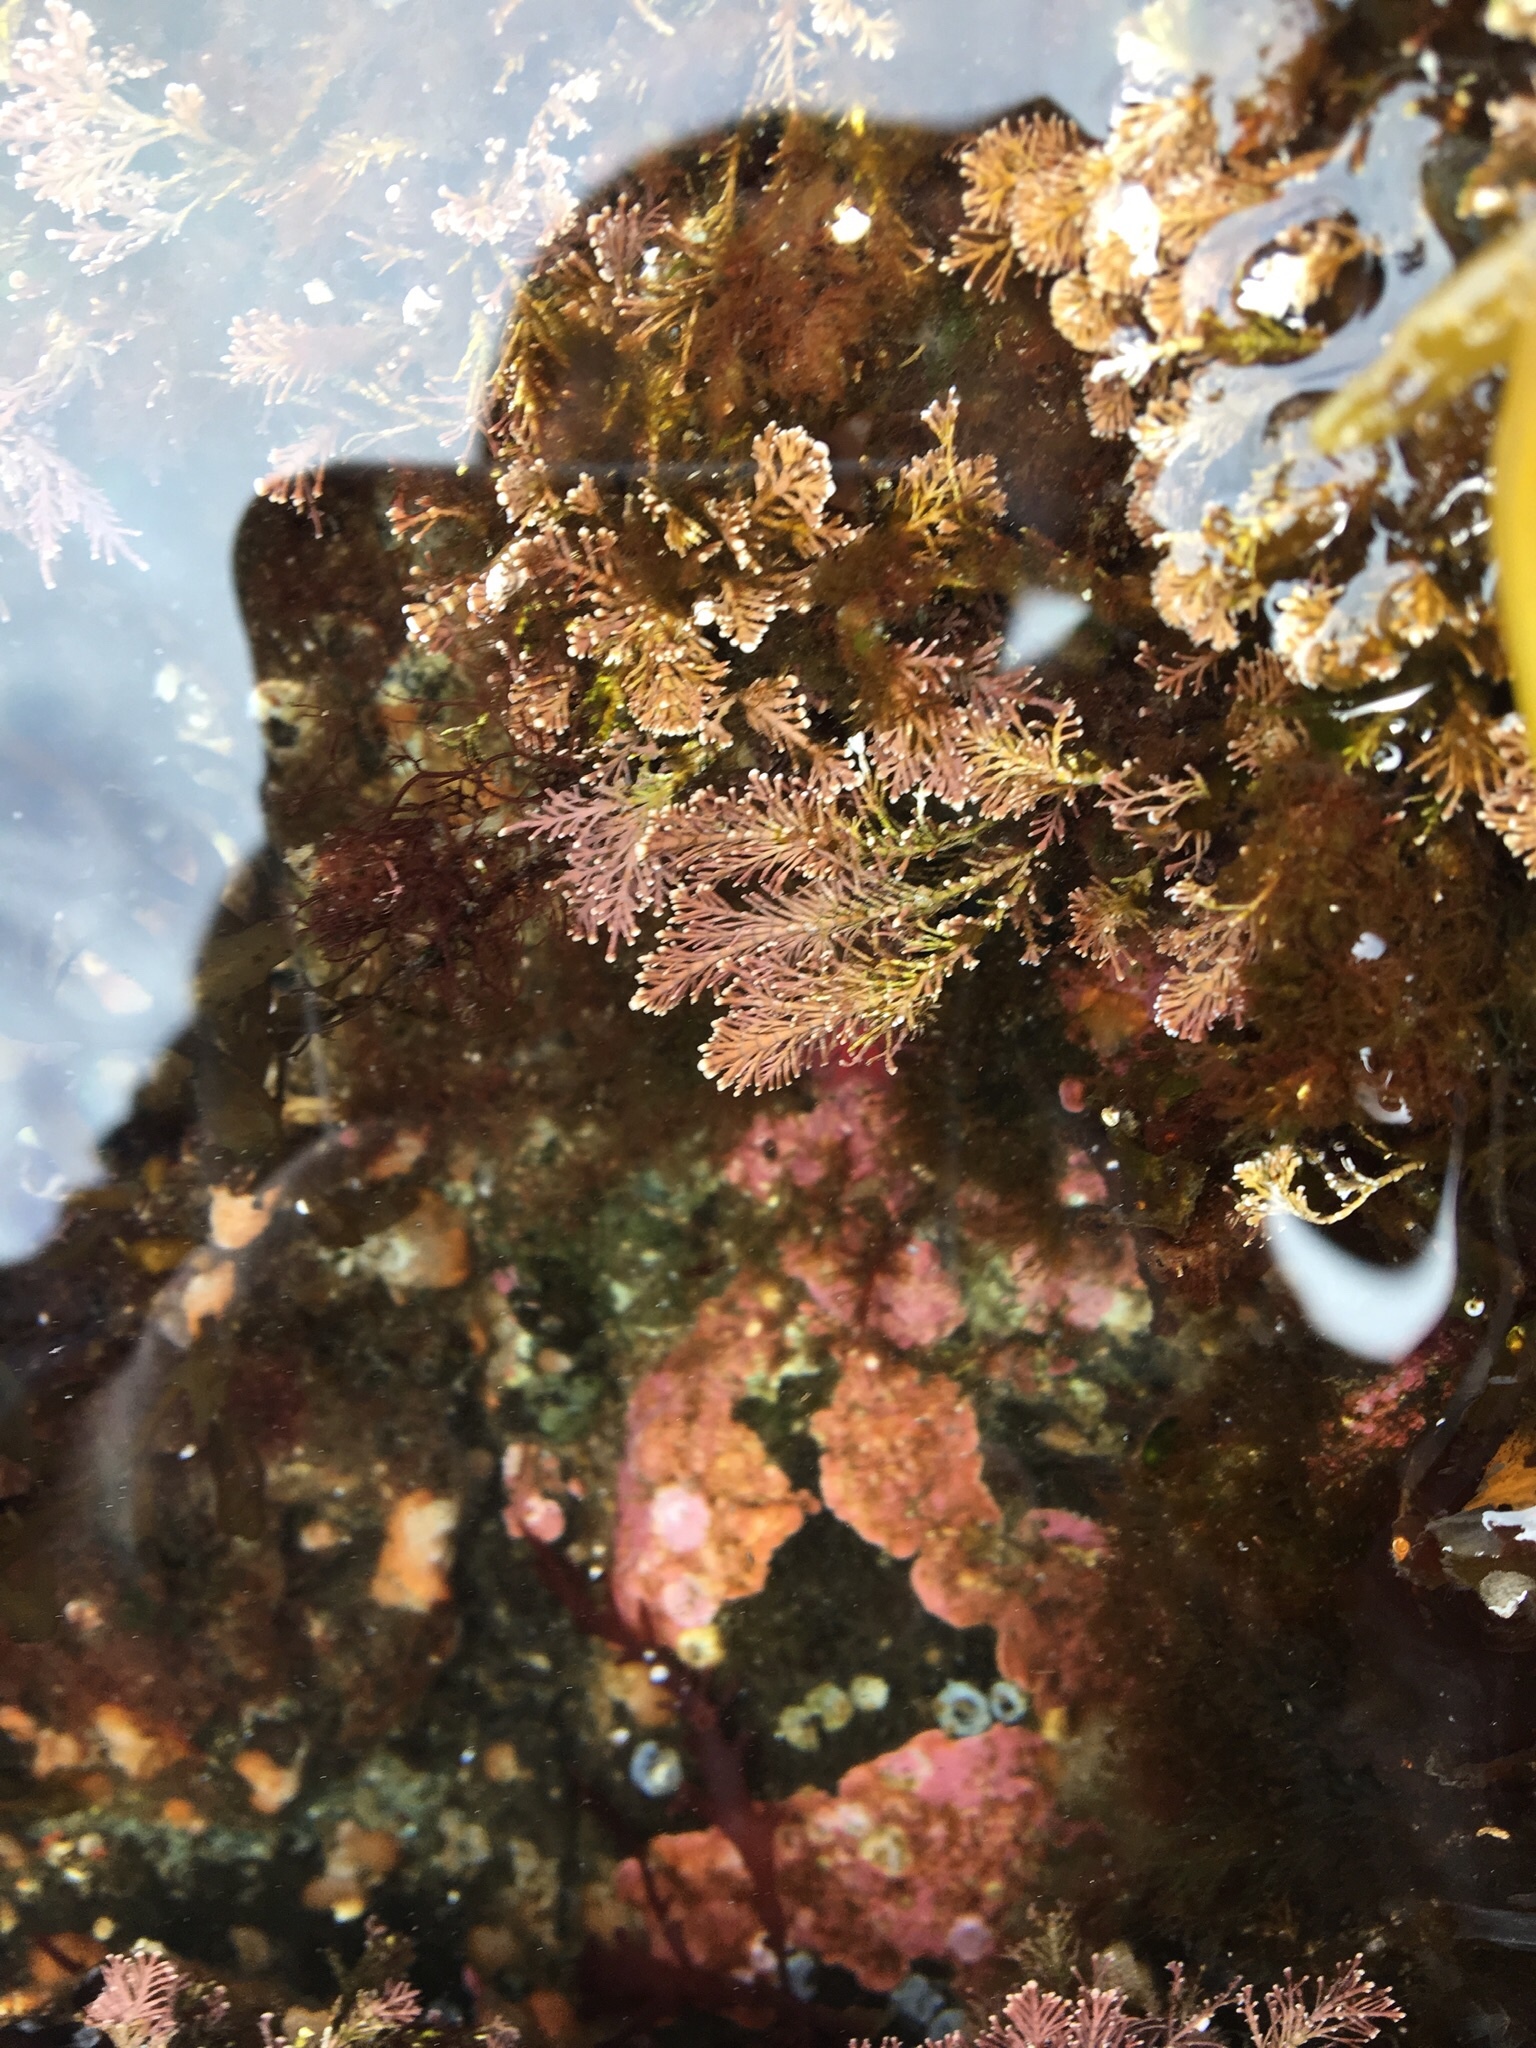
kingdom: Plantae
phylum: Rhodophyta
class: Florideophyceae
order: Corallinales
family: Corallinaceae
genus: Corallina
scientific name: Corallina officinalis
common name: Coral weed
